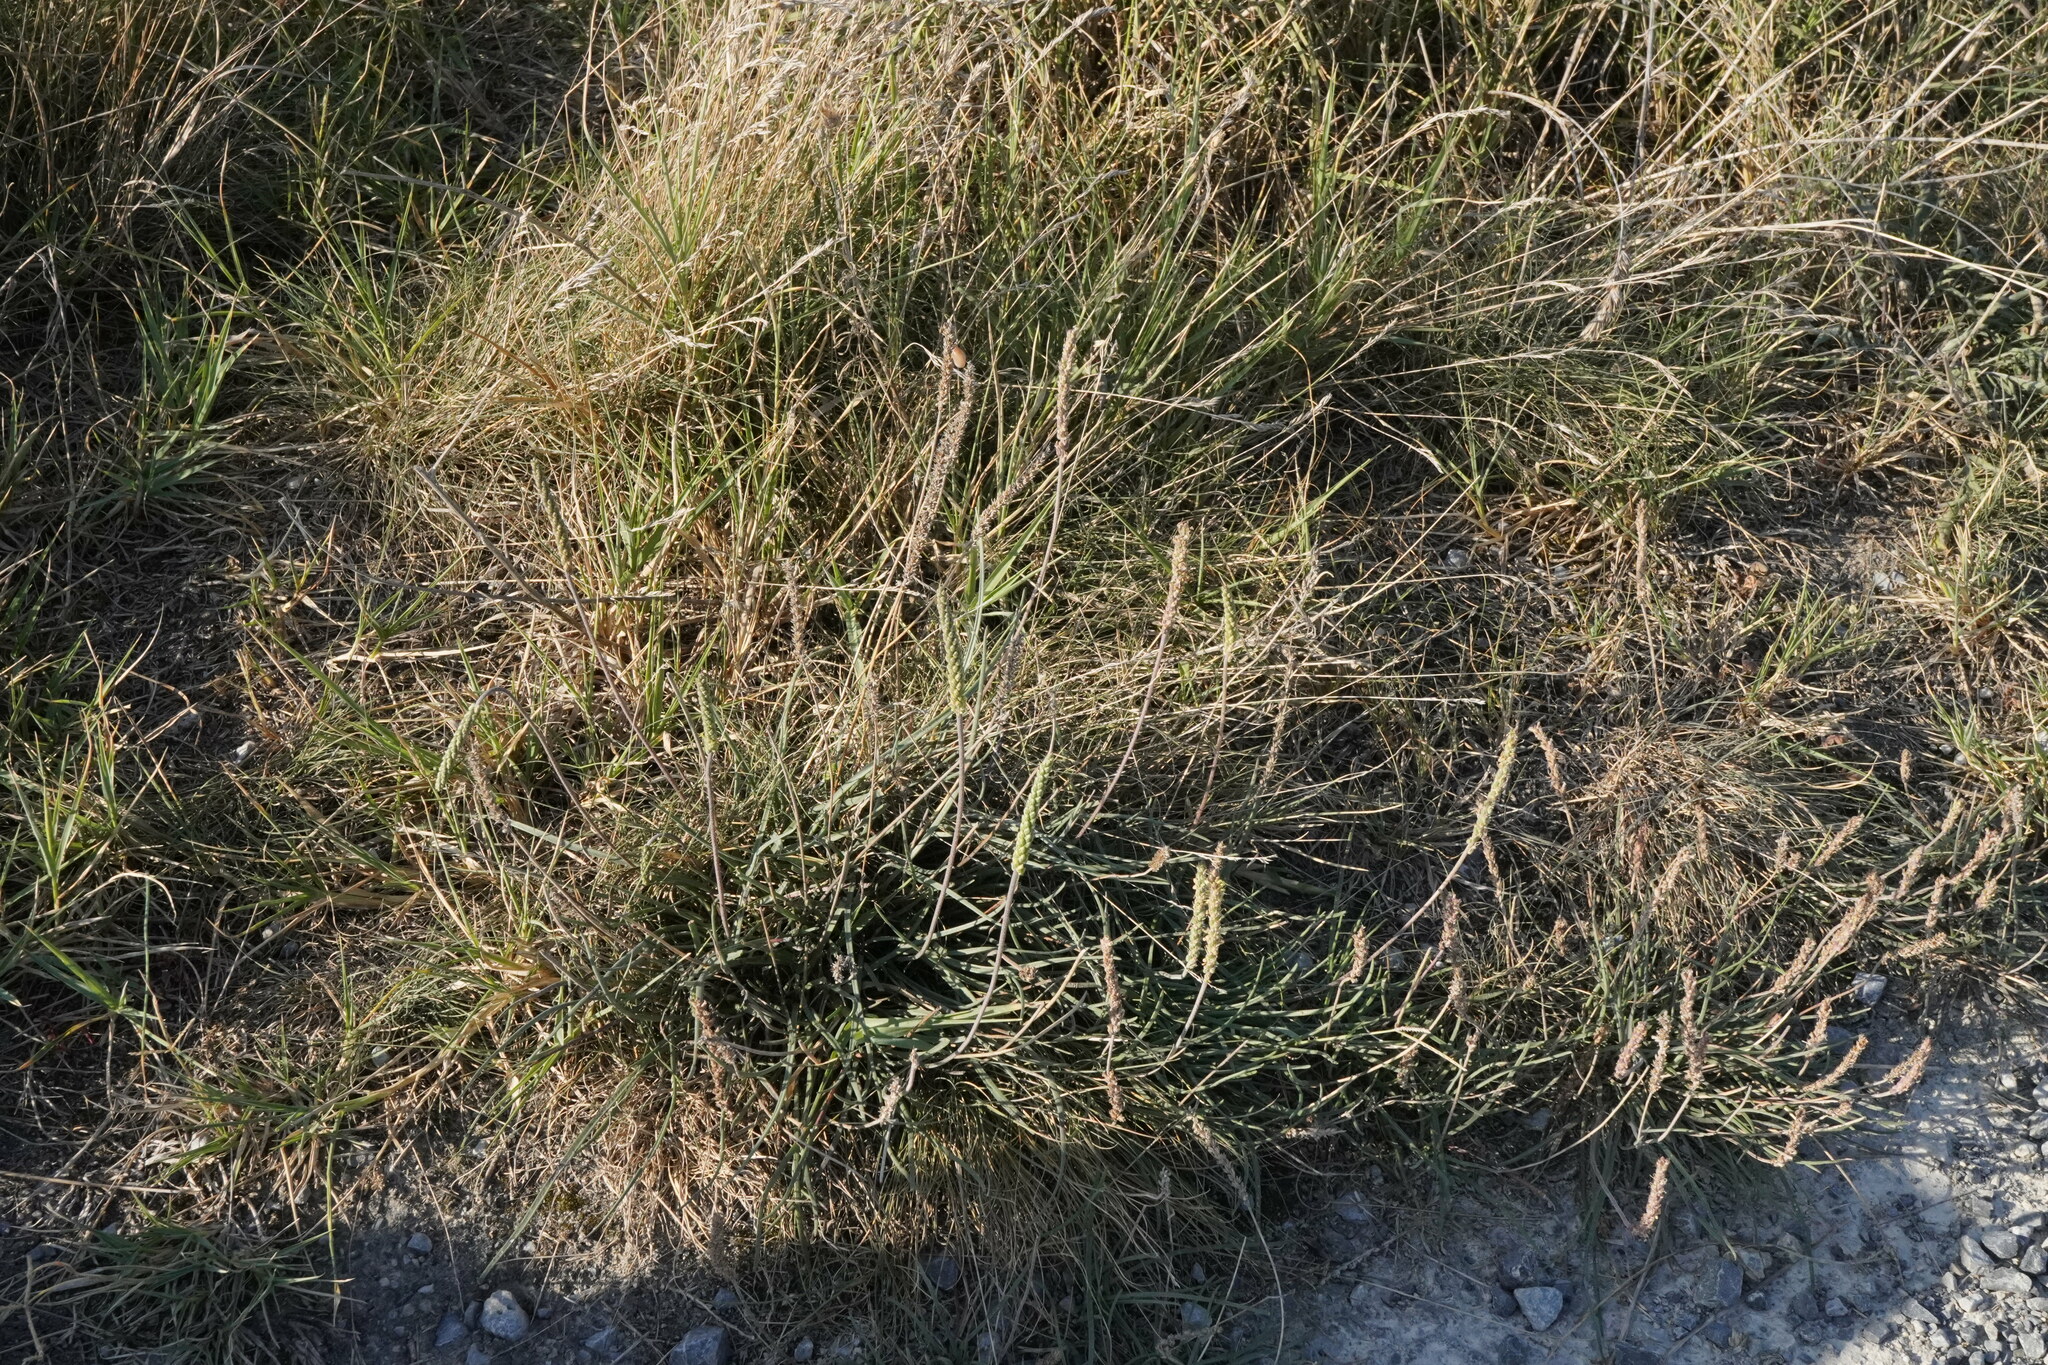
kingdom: Plantae
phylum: Tracheophyta
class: Magnoliopsida
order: Lamiales
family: Plantaginaceae
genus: Plantago
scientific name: Plantago maritima
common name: Sea plantain
